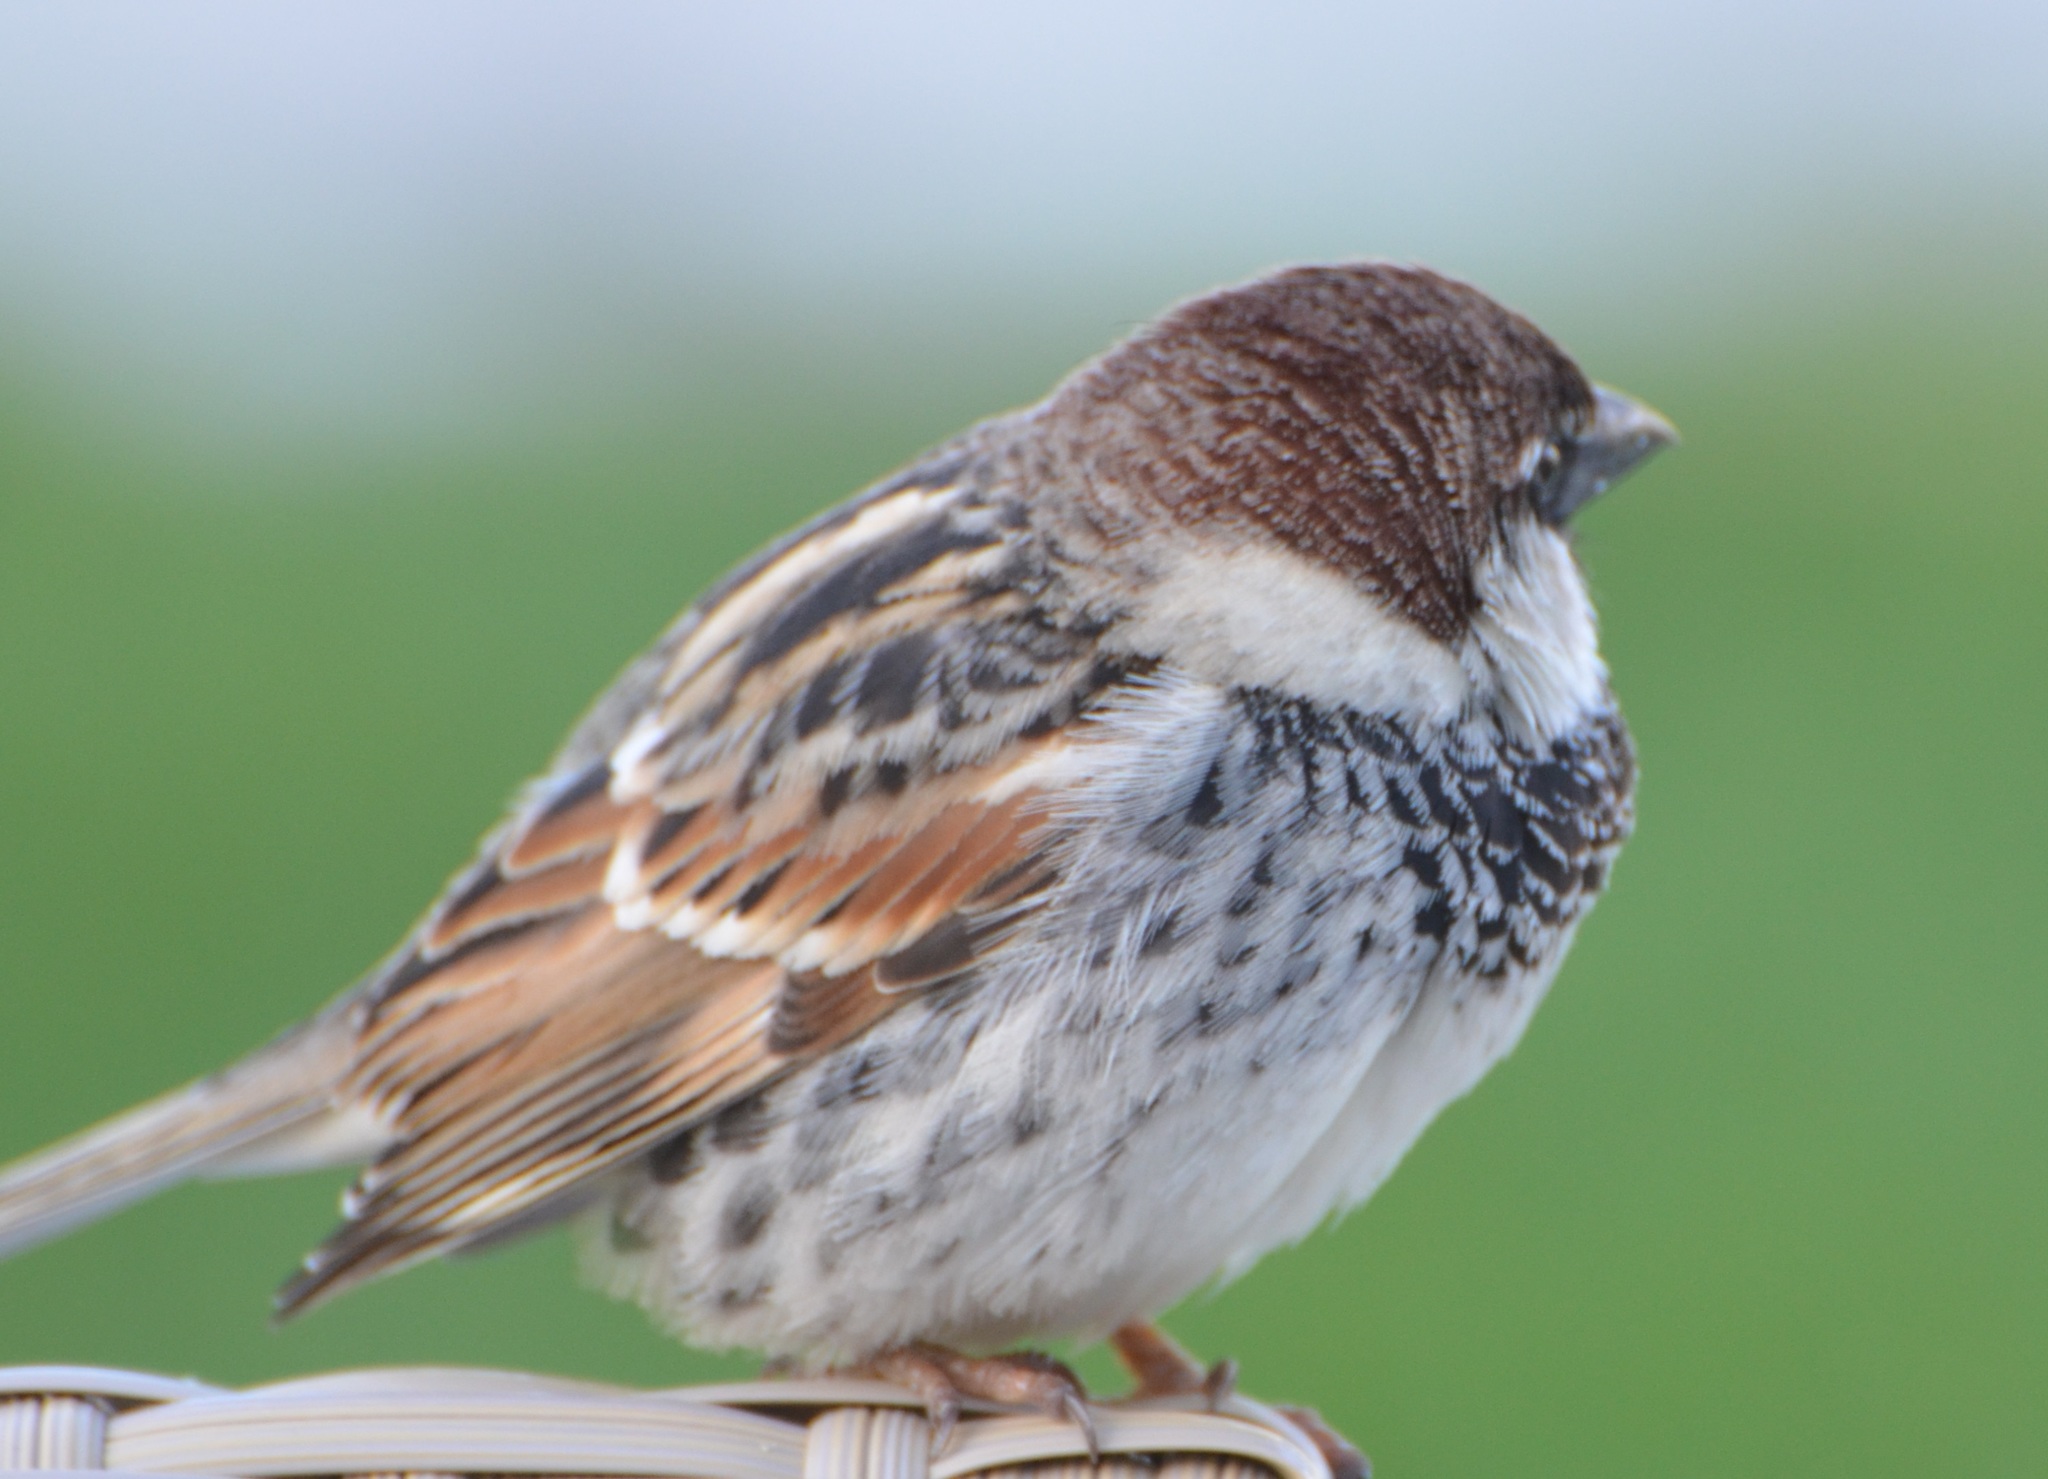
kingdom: Animalia
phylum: Chordata
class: Aves
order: Passeriformes
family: Passeridae
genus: Passer
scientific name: Passer hispaniolensis
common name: Spanish sparrow
